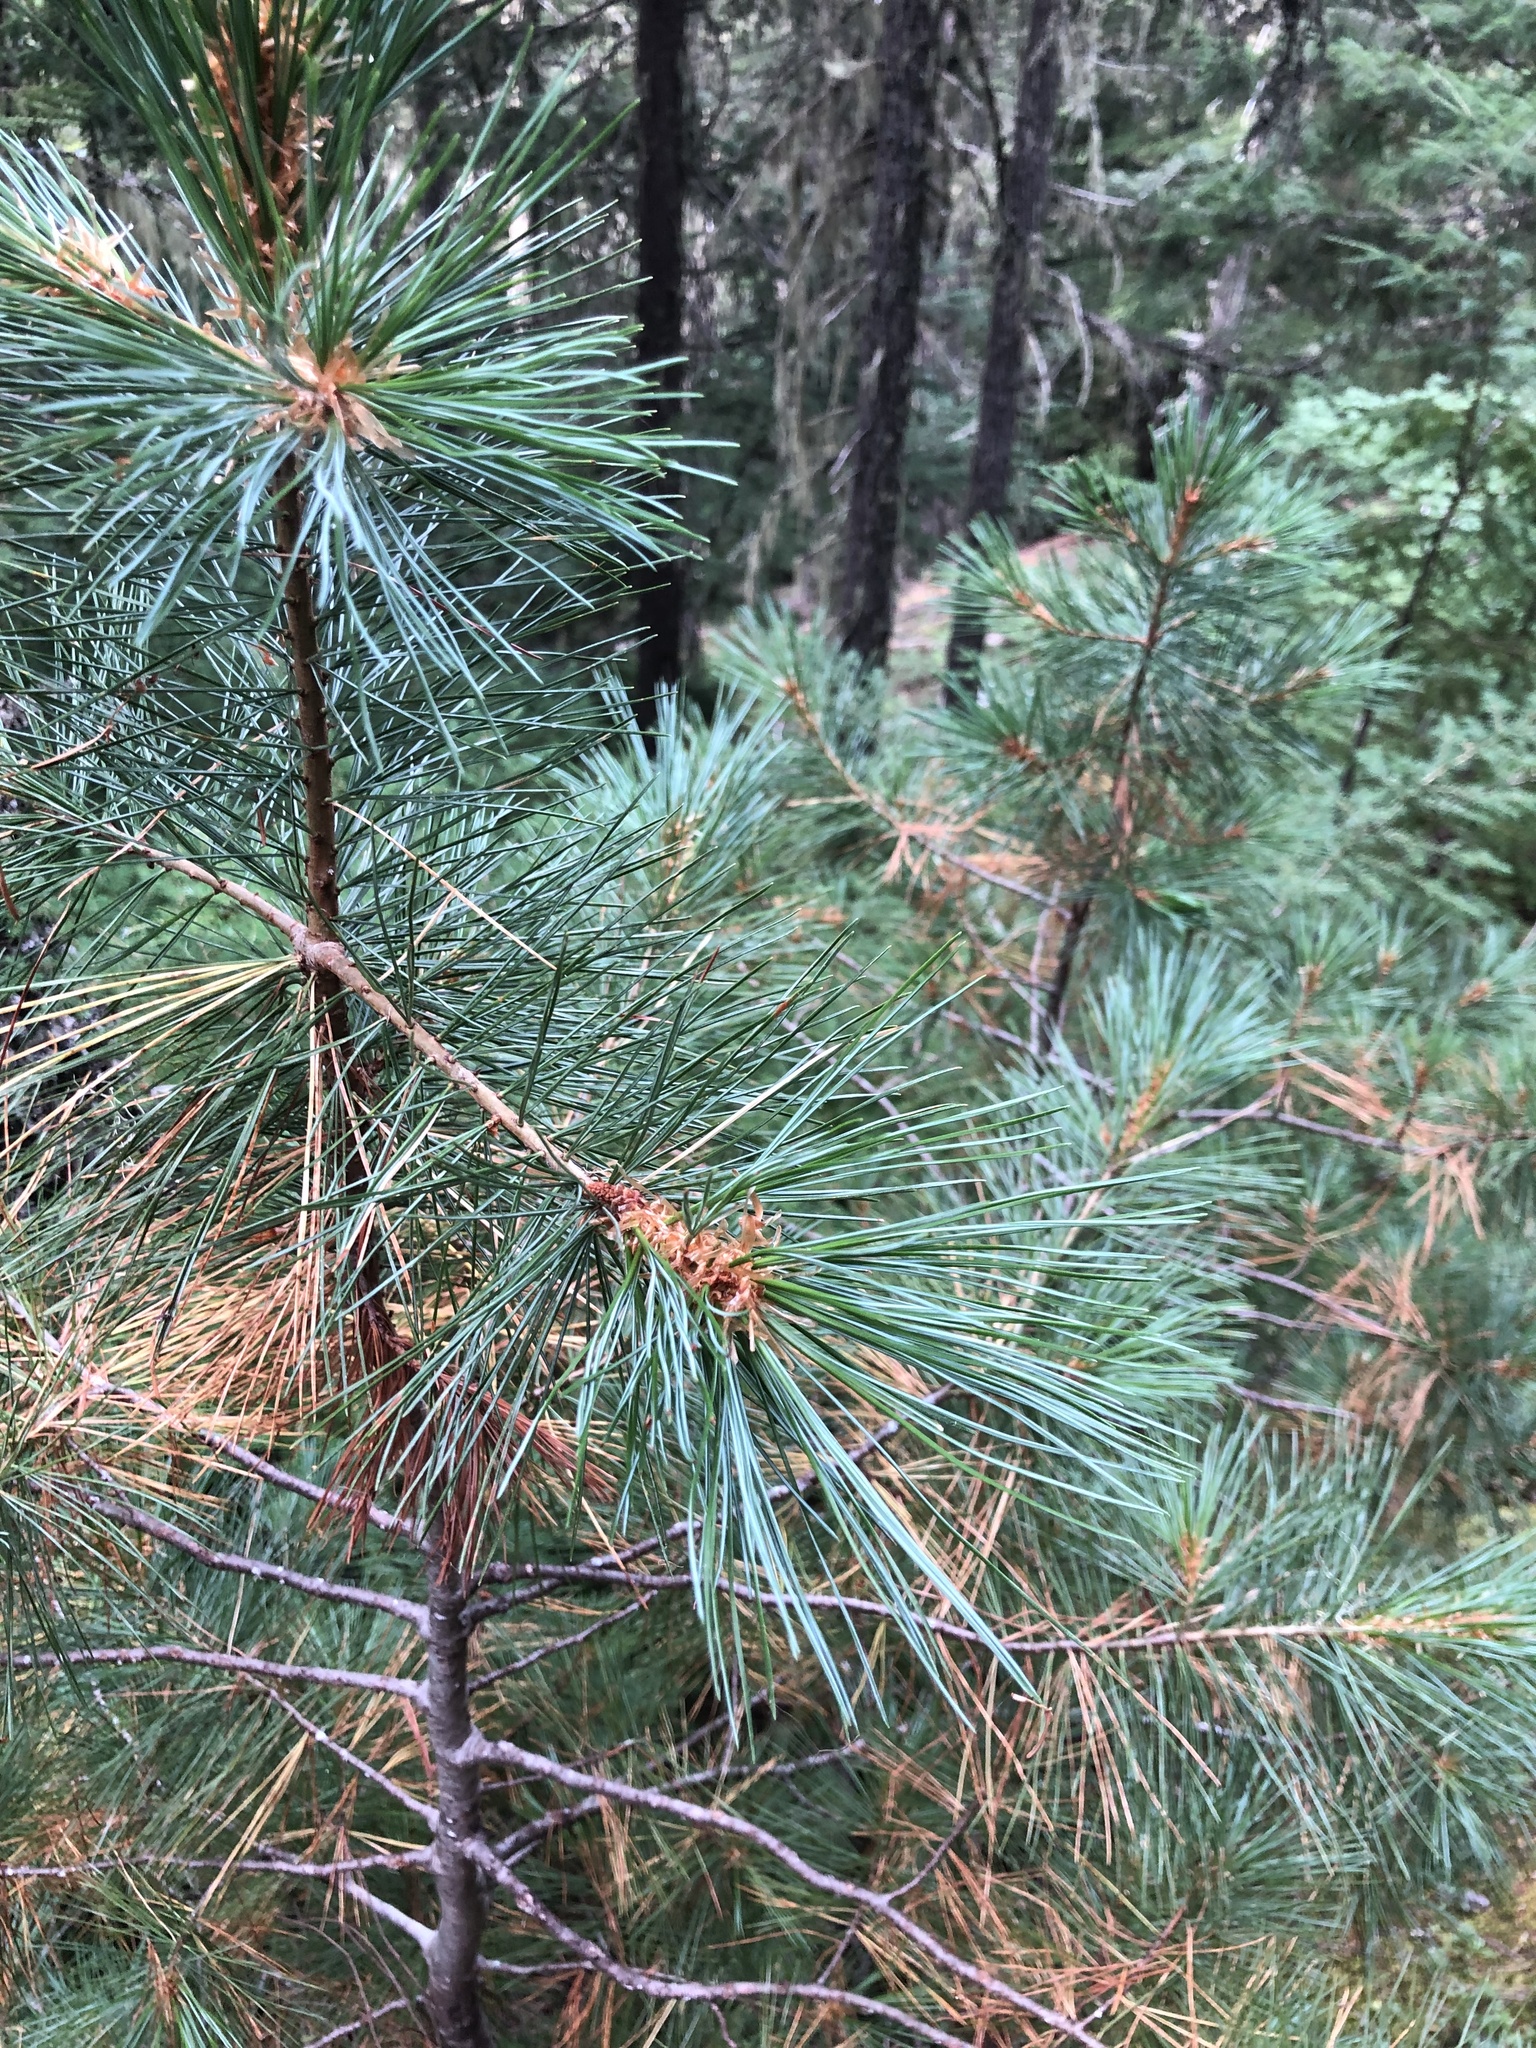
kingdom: Plantae
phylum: Tracheophyta
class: Pinopsida
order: Pinales
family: Pinaceae
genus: Pinus
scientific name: Pinus monticola
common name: Western white pine
